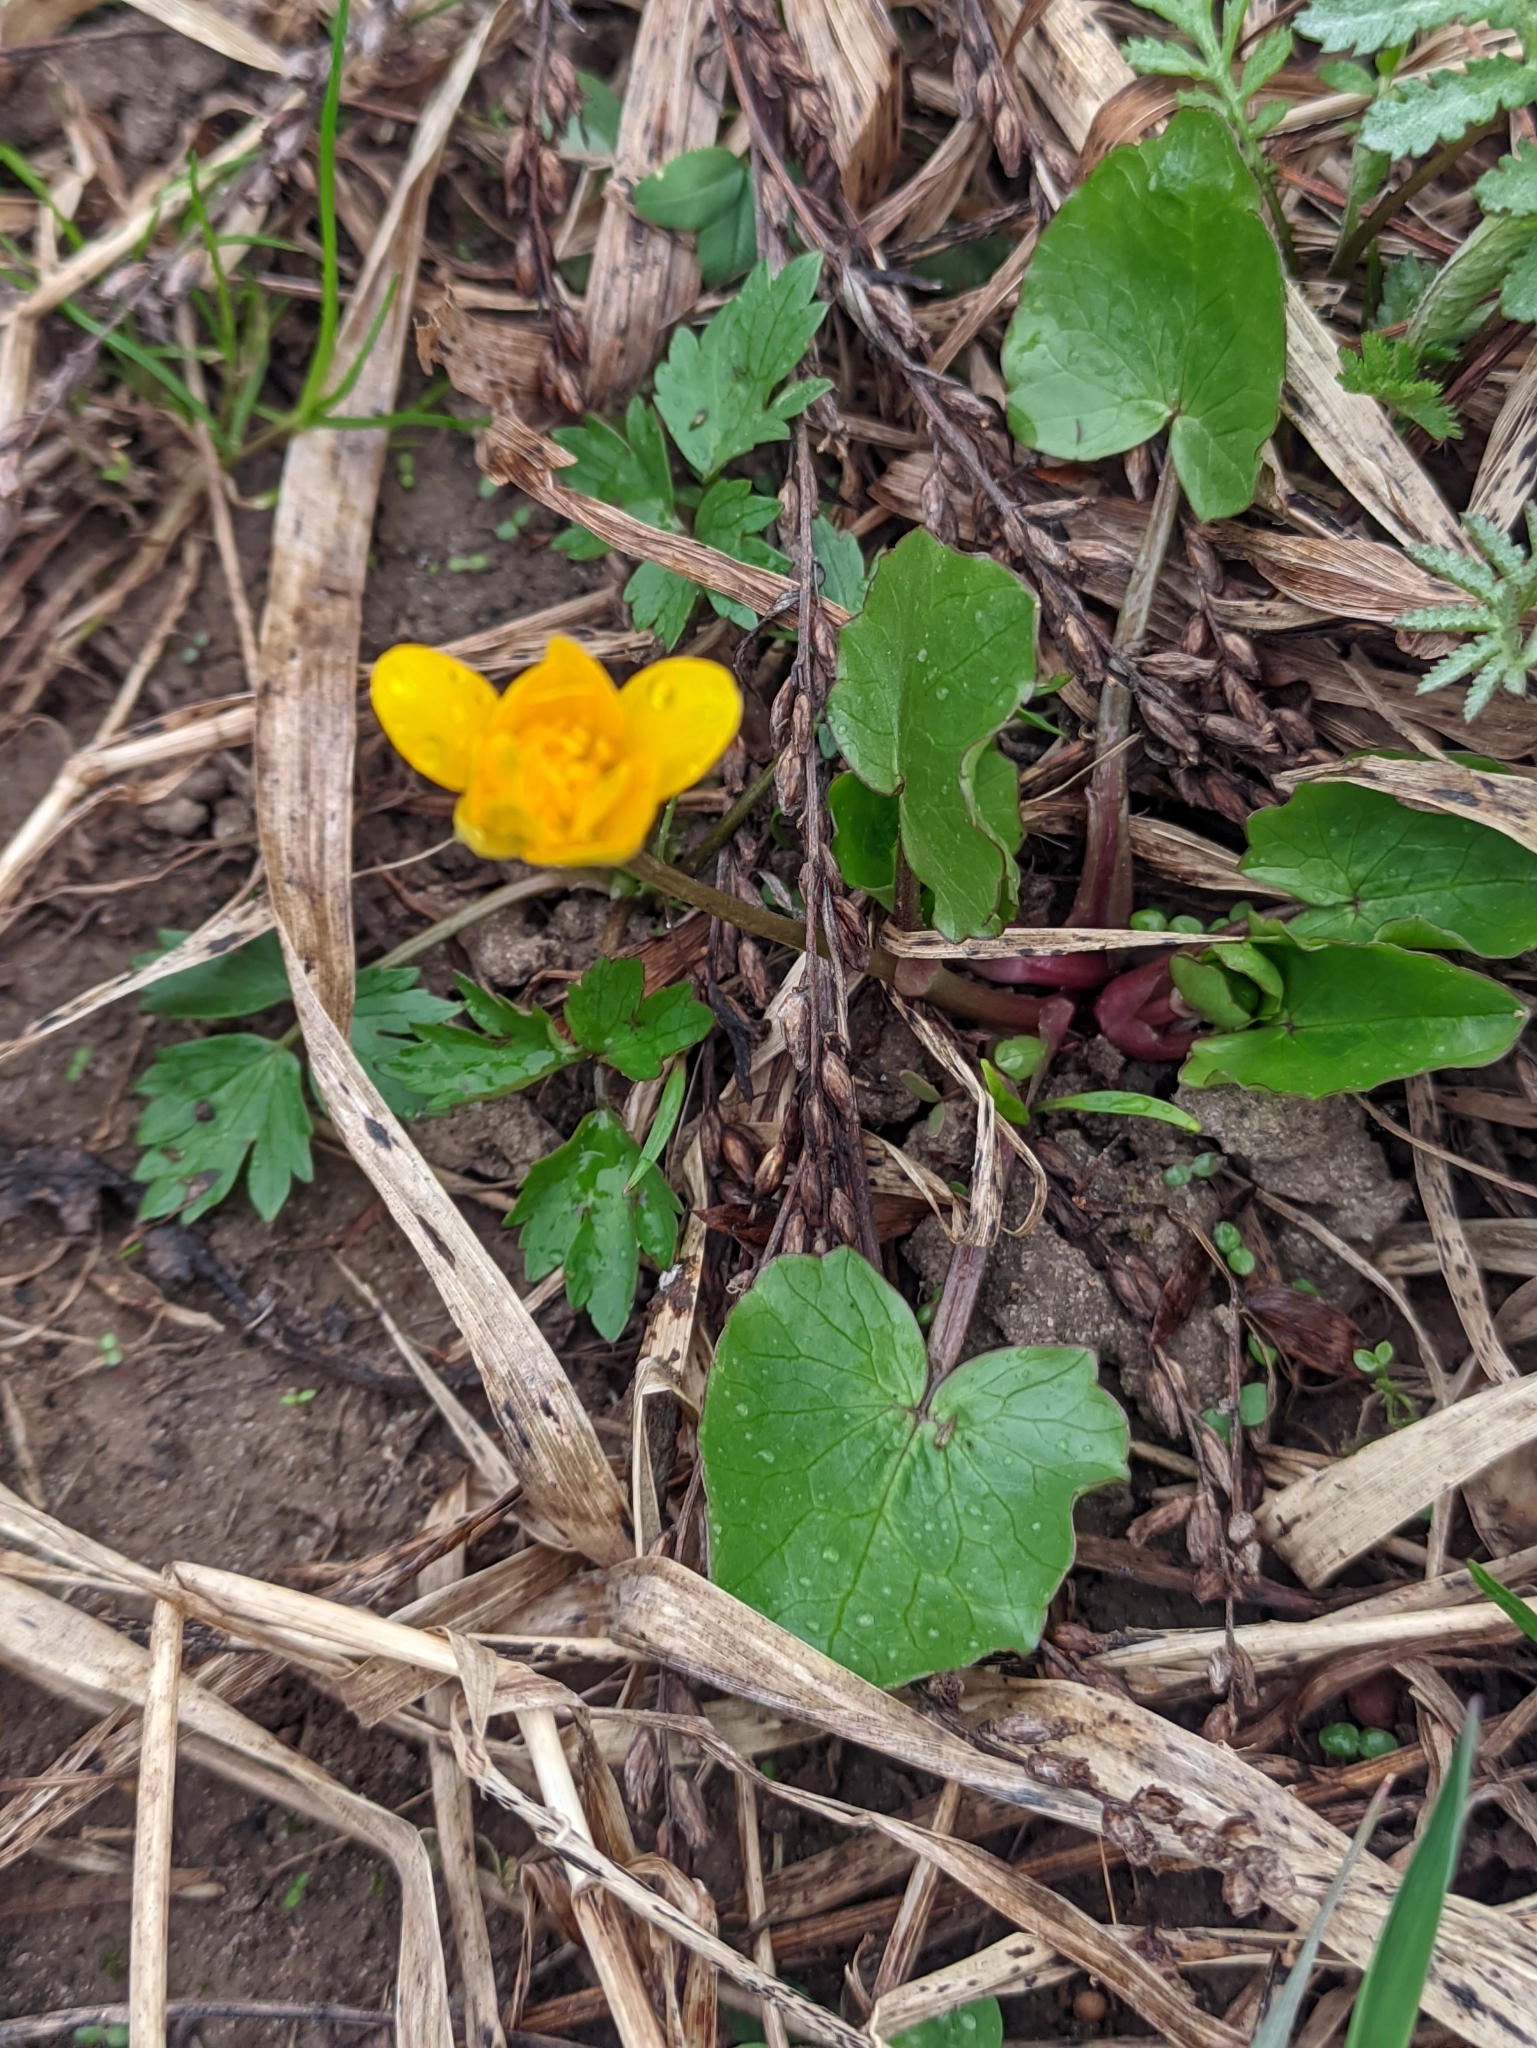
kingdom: Plantae
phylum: Tracheophyta
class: Magnoliopsida
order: Ranunculales
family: Ranunculaceae
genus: Ficaria
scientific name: Ficaria verna
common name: Lesser celandine
